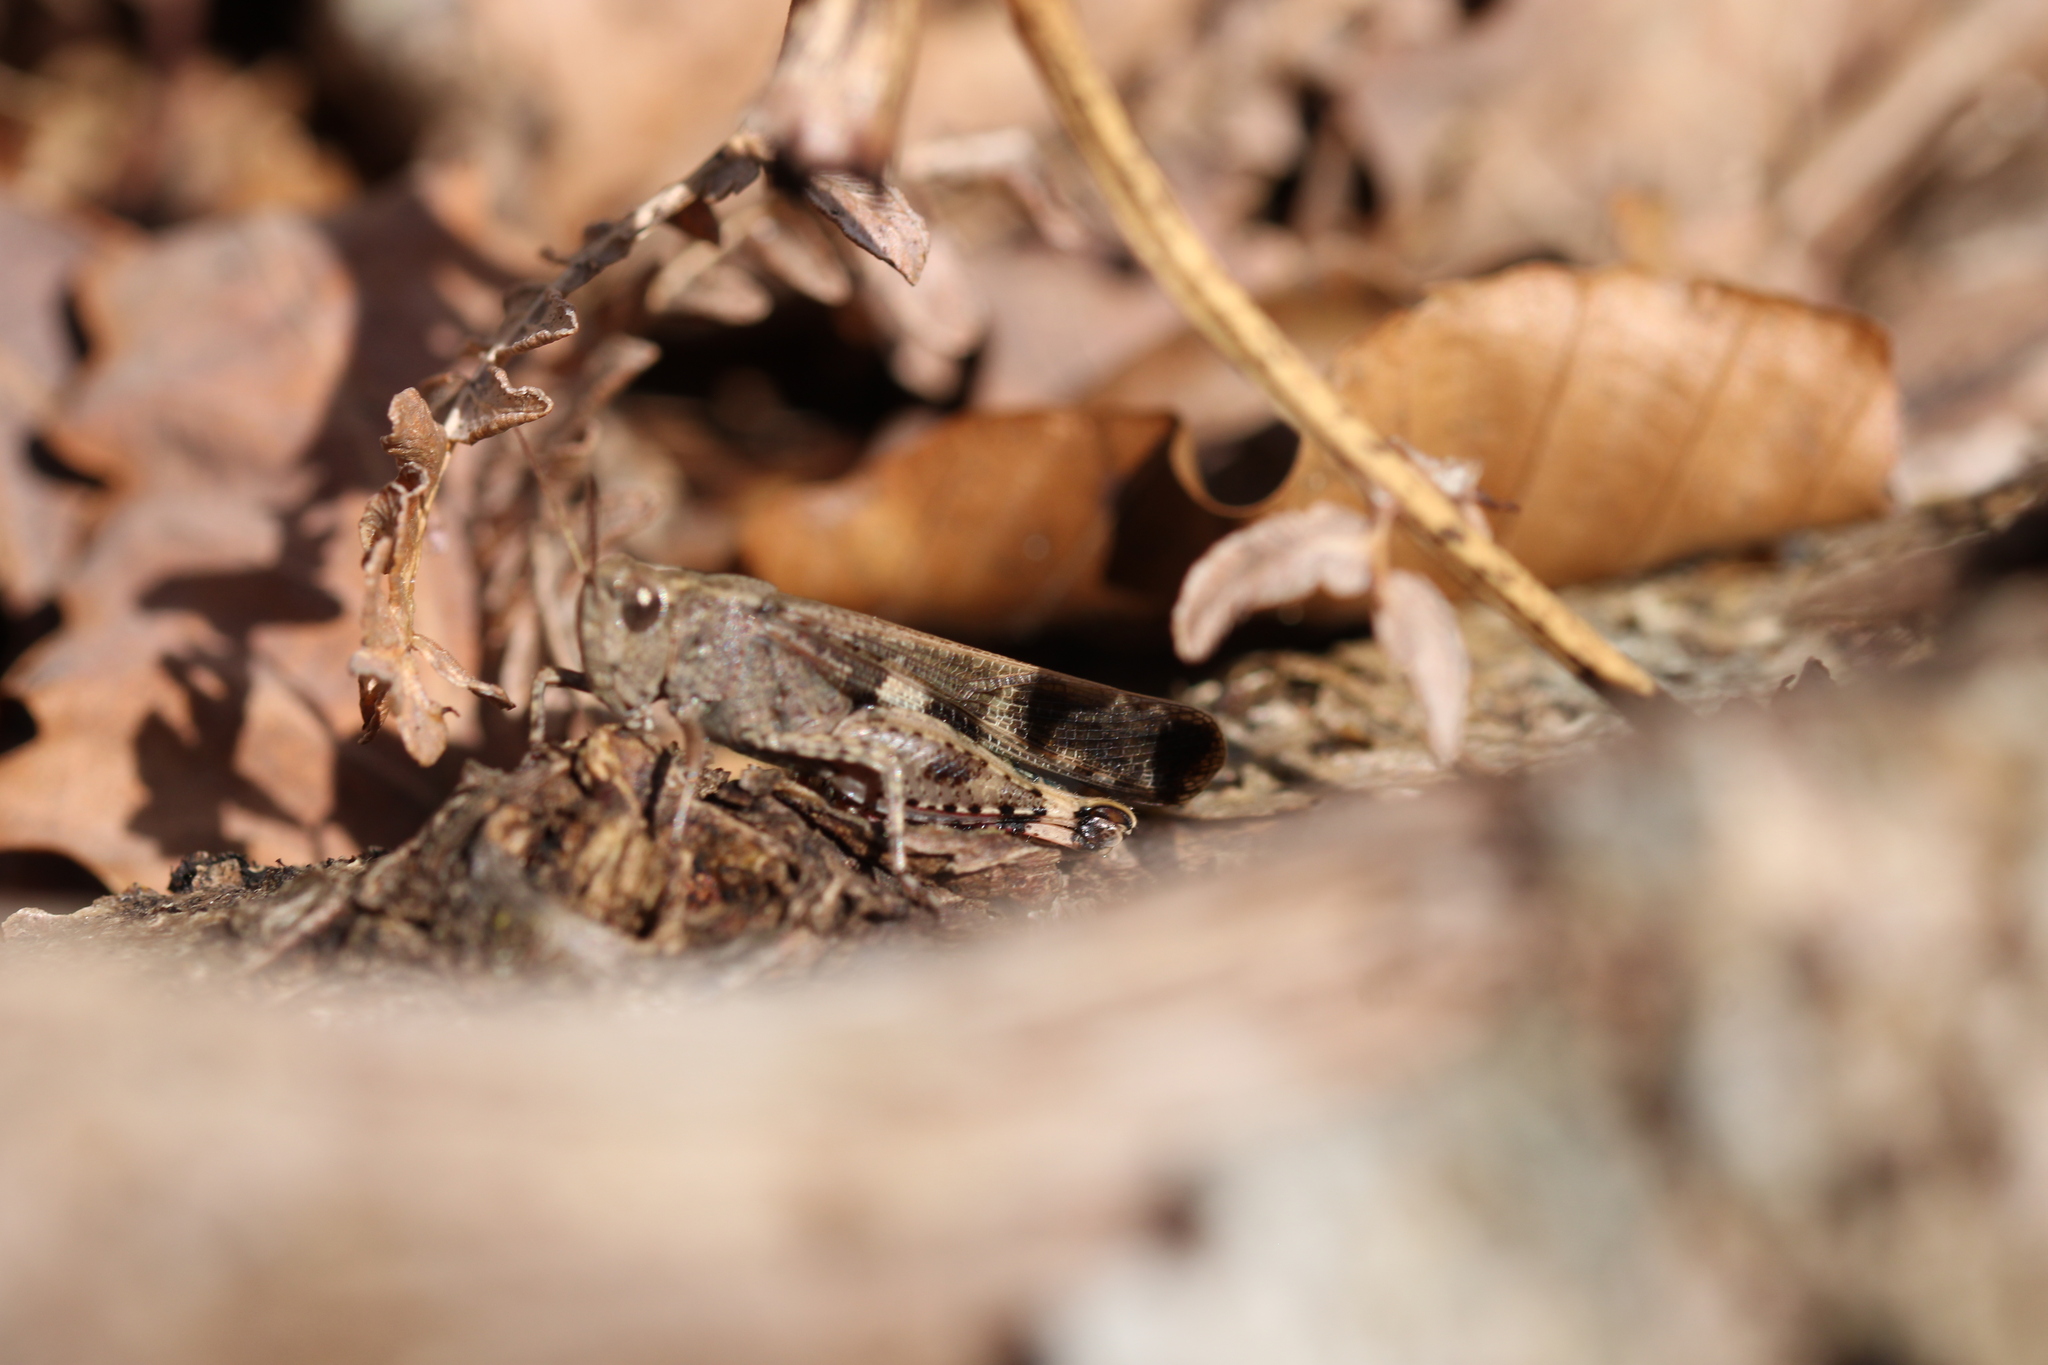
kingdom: Animalia
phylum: Arthropoda
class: Insecta
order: Orthoptera
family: Acrididae
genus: Aiolopus
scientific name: Aiolopus strepens
